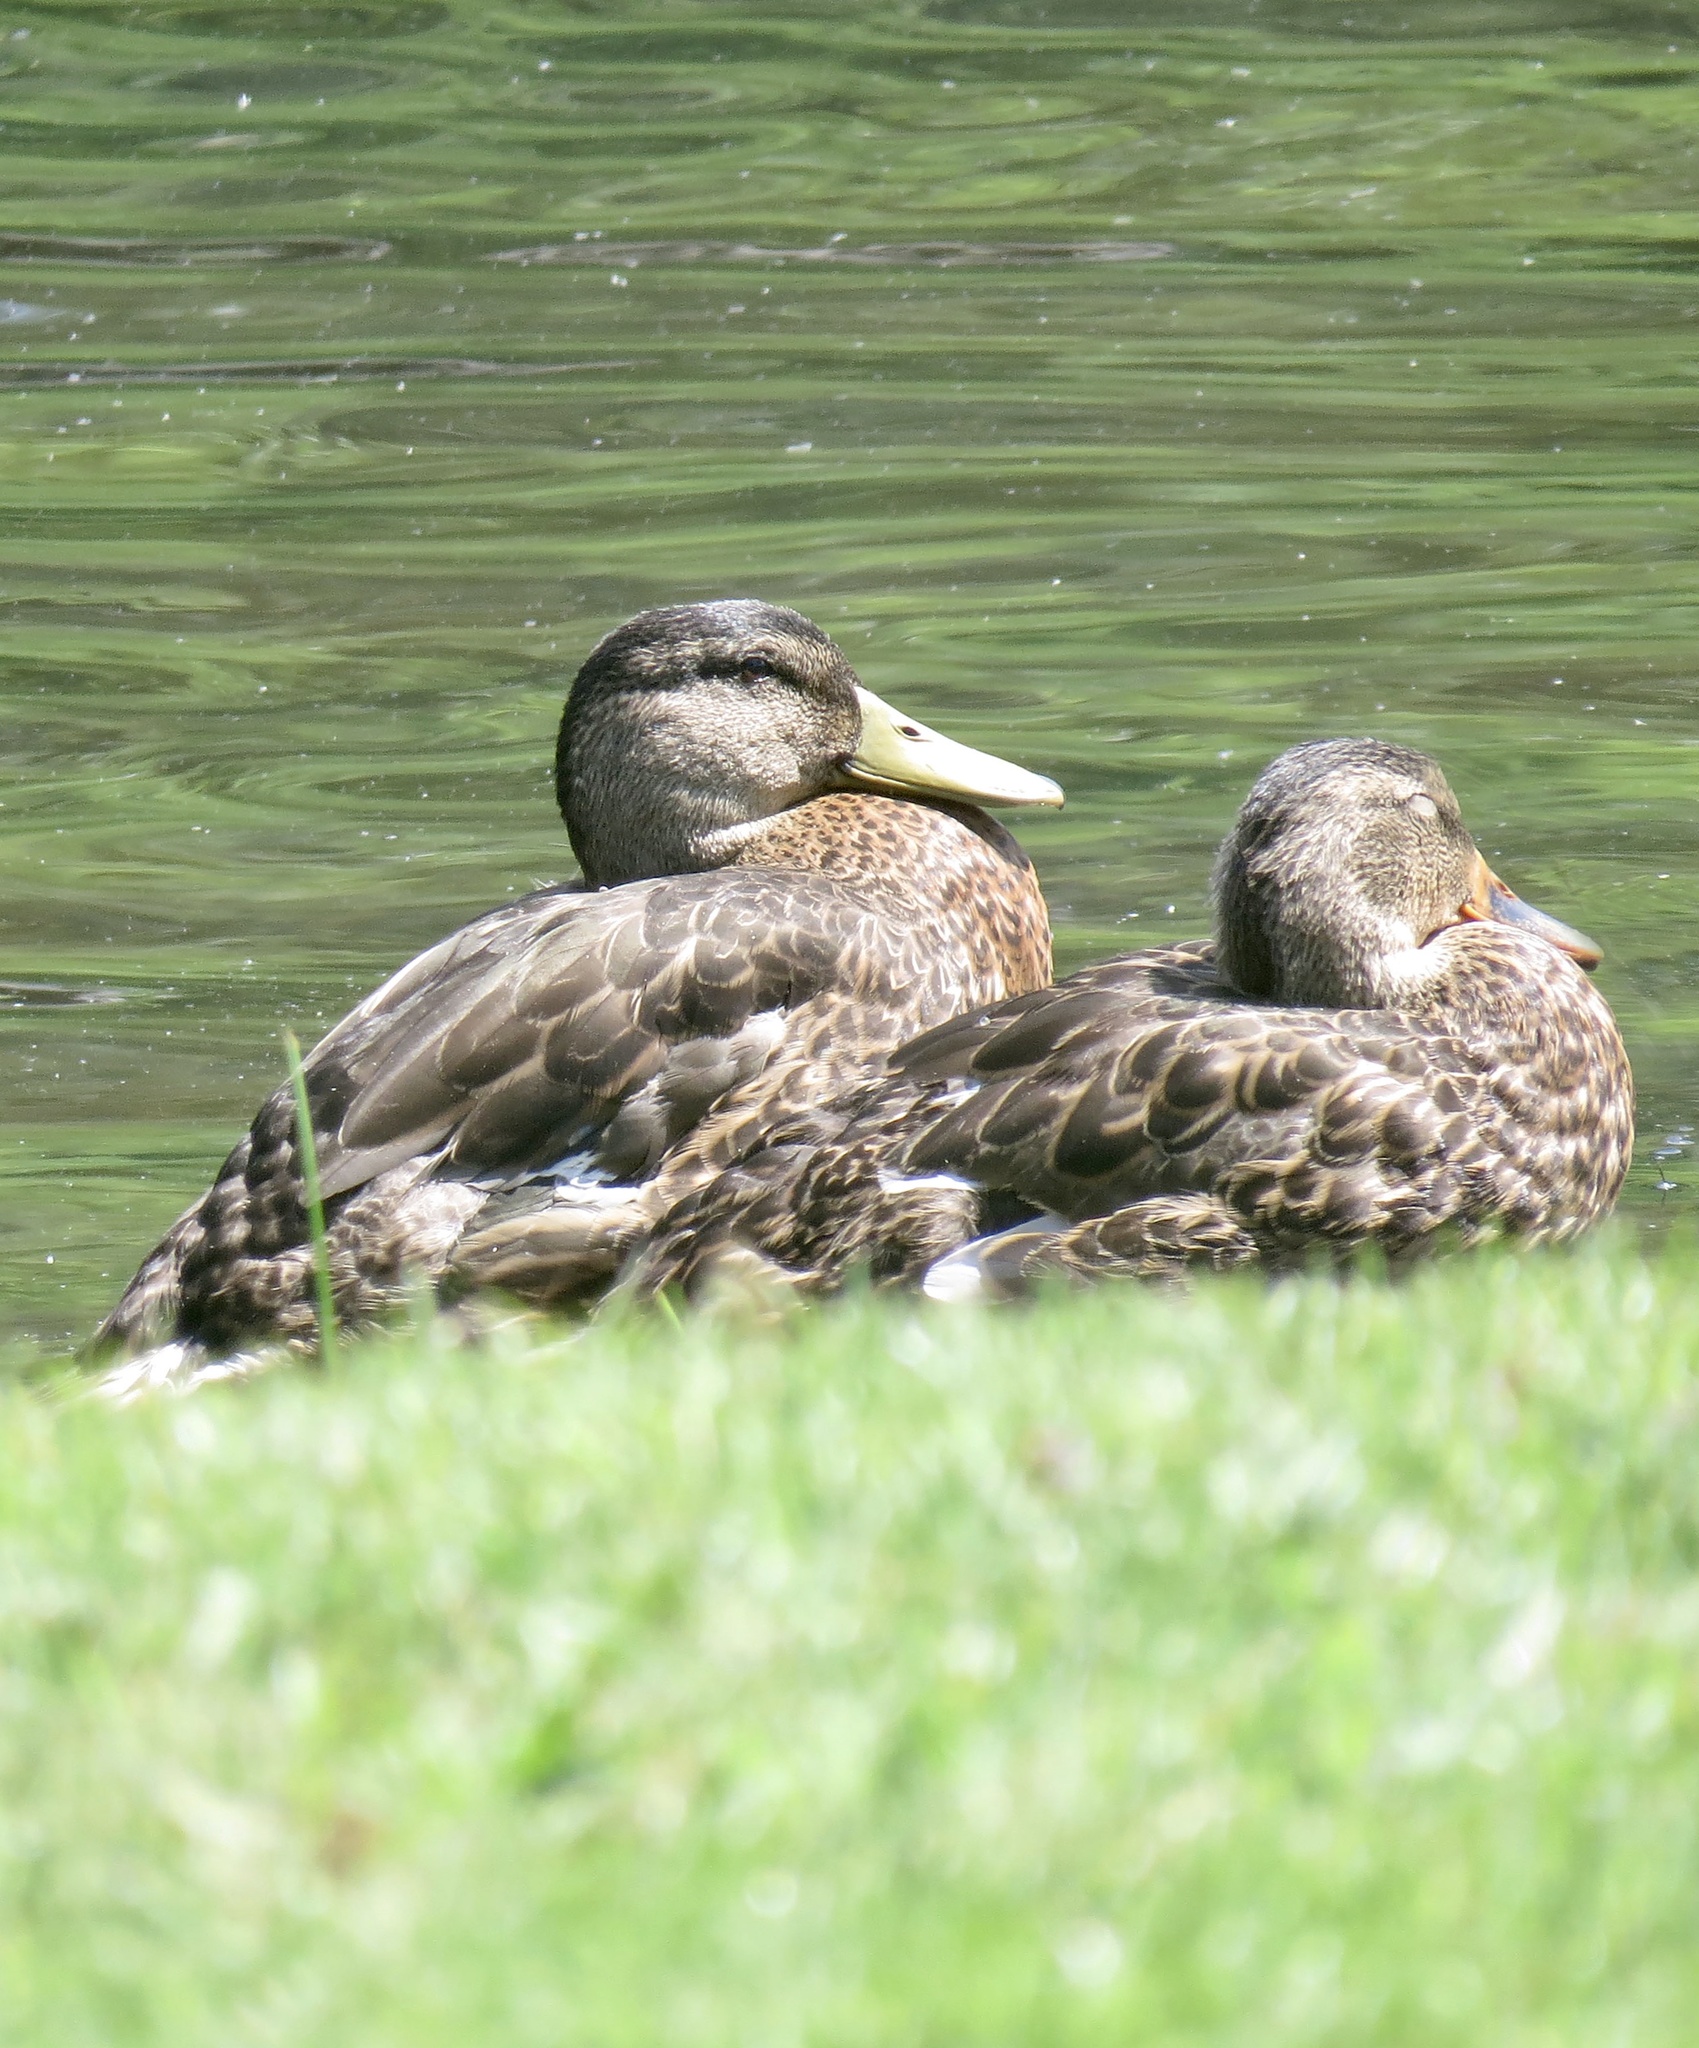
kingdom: Animalia
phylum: Chordata
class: Aves
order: Anseriformes
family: Anatidae
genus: Anas
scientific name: Anas platyrhynchos
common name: Mallard
